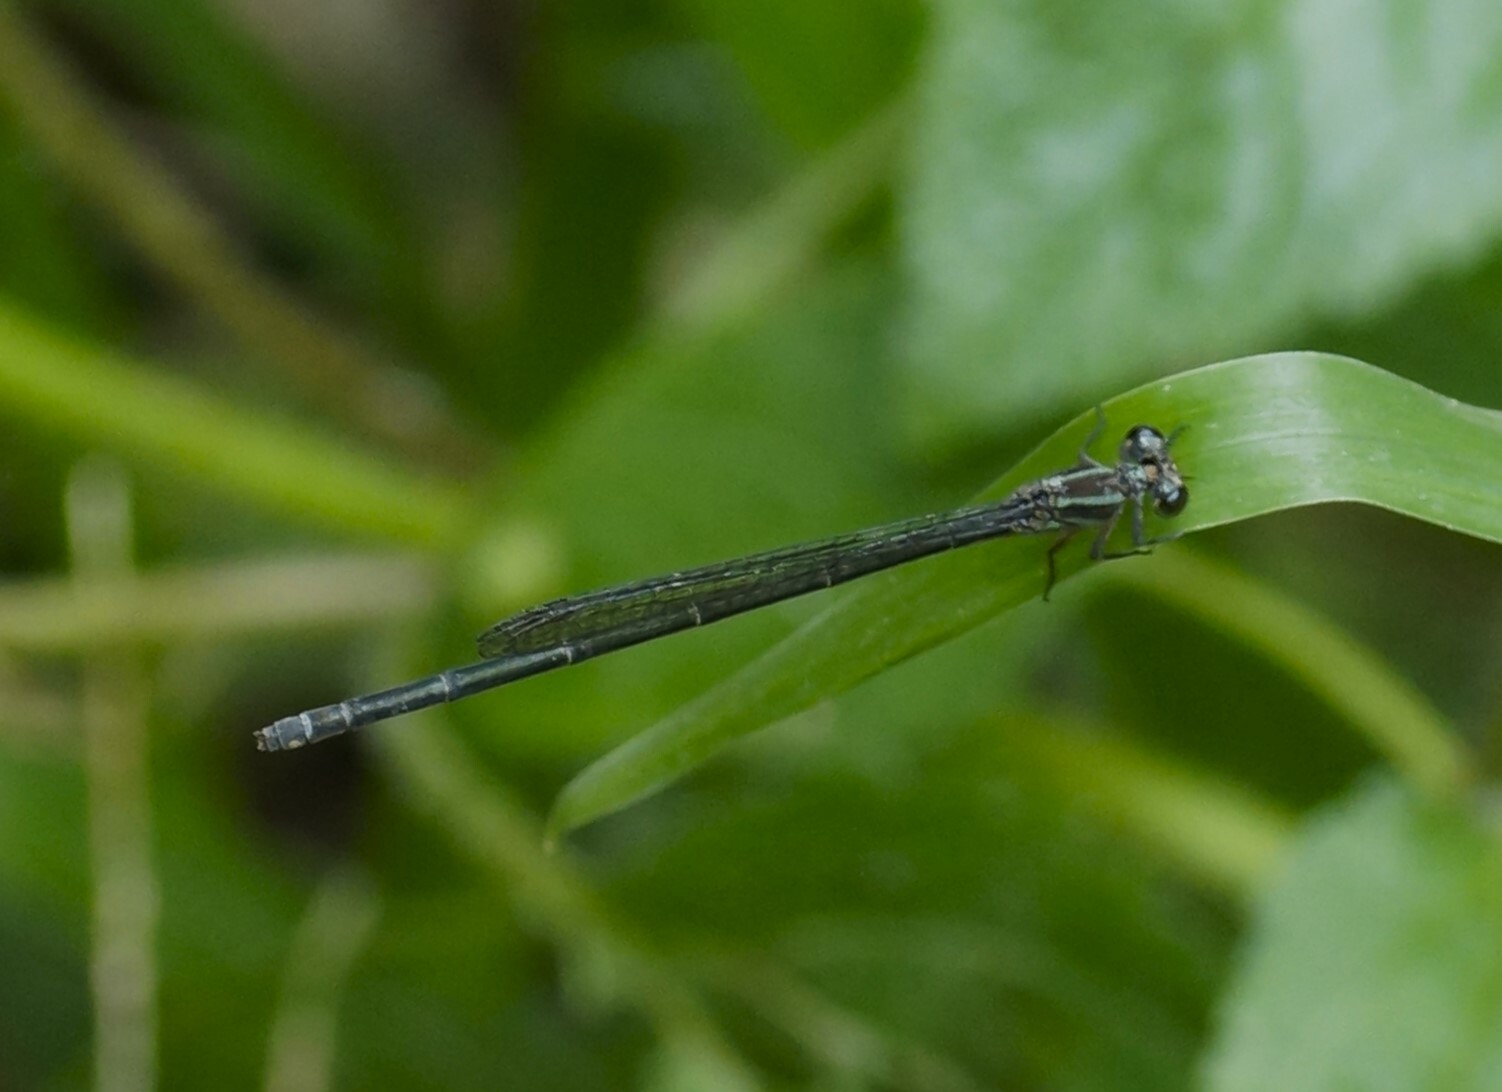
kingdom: Animalia
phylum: Arthropoda
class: Insecta
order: Odonata
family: Coenagrionidae
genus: Pseudagrion
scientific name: Pseudagrion lucifer
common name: Citrine-headed riverdamsel
